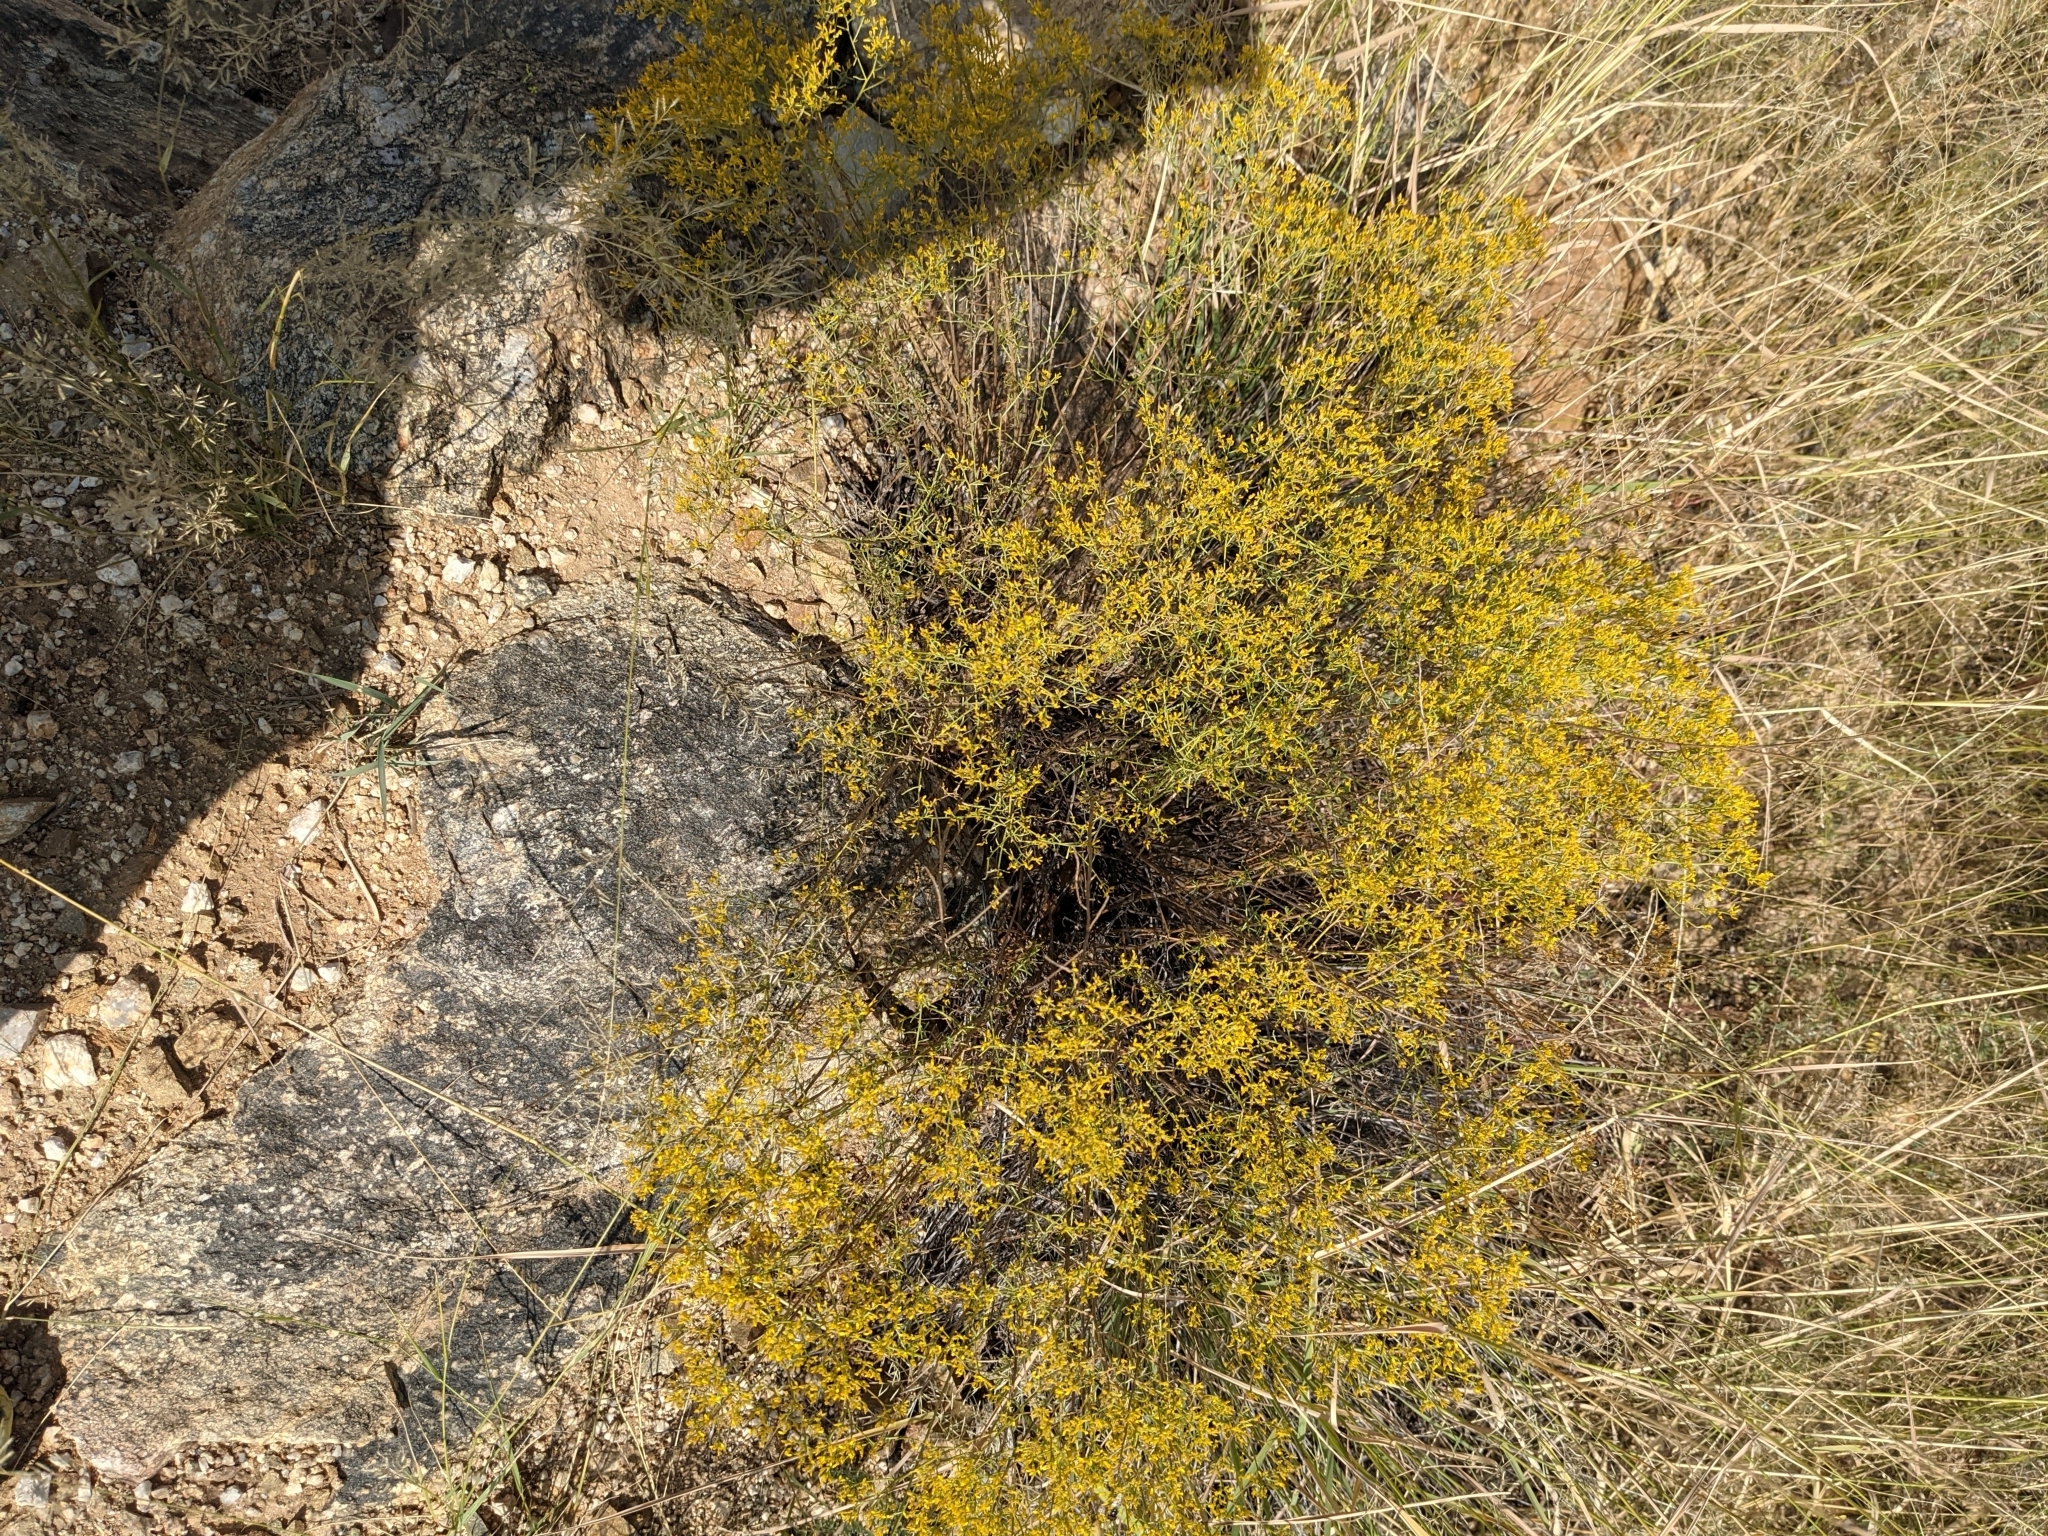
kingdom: Plantae
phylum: Tracheophyta
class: Magnoliopsida
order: Asterales
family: Asteraceae
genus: Gutierrezia
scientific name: Gutierrezia microcephala
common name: Thread snakeweed
